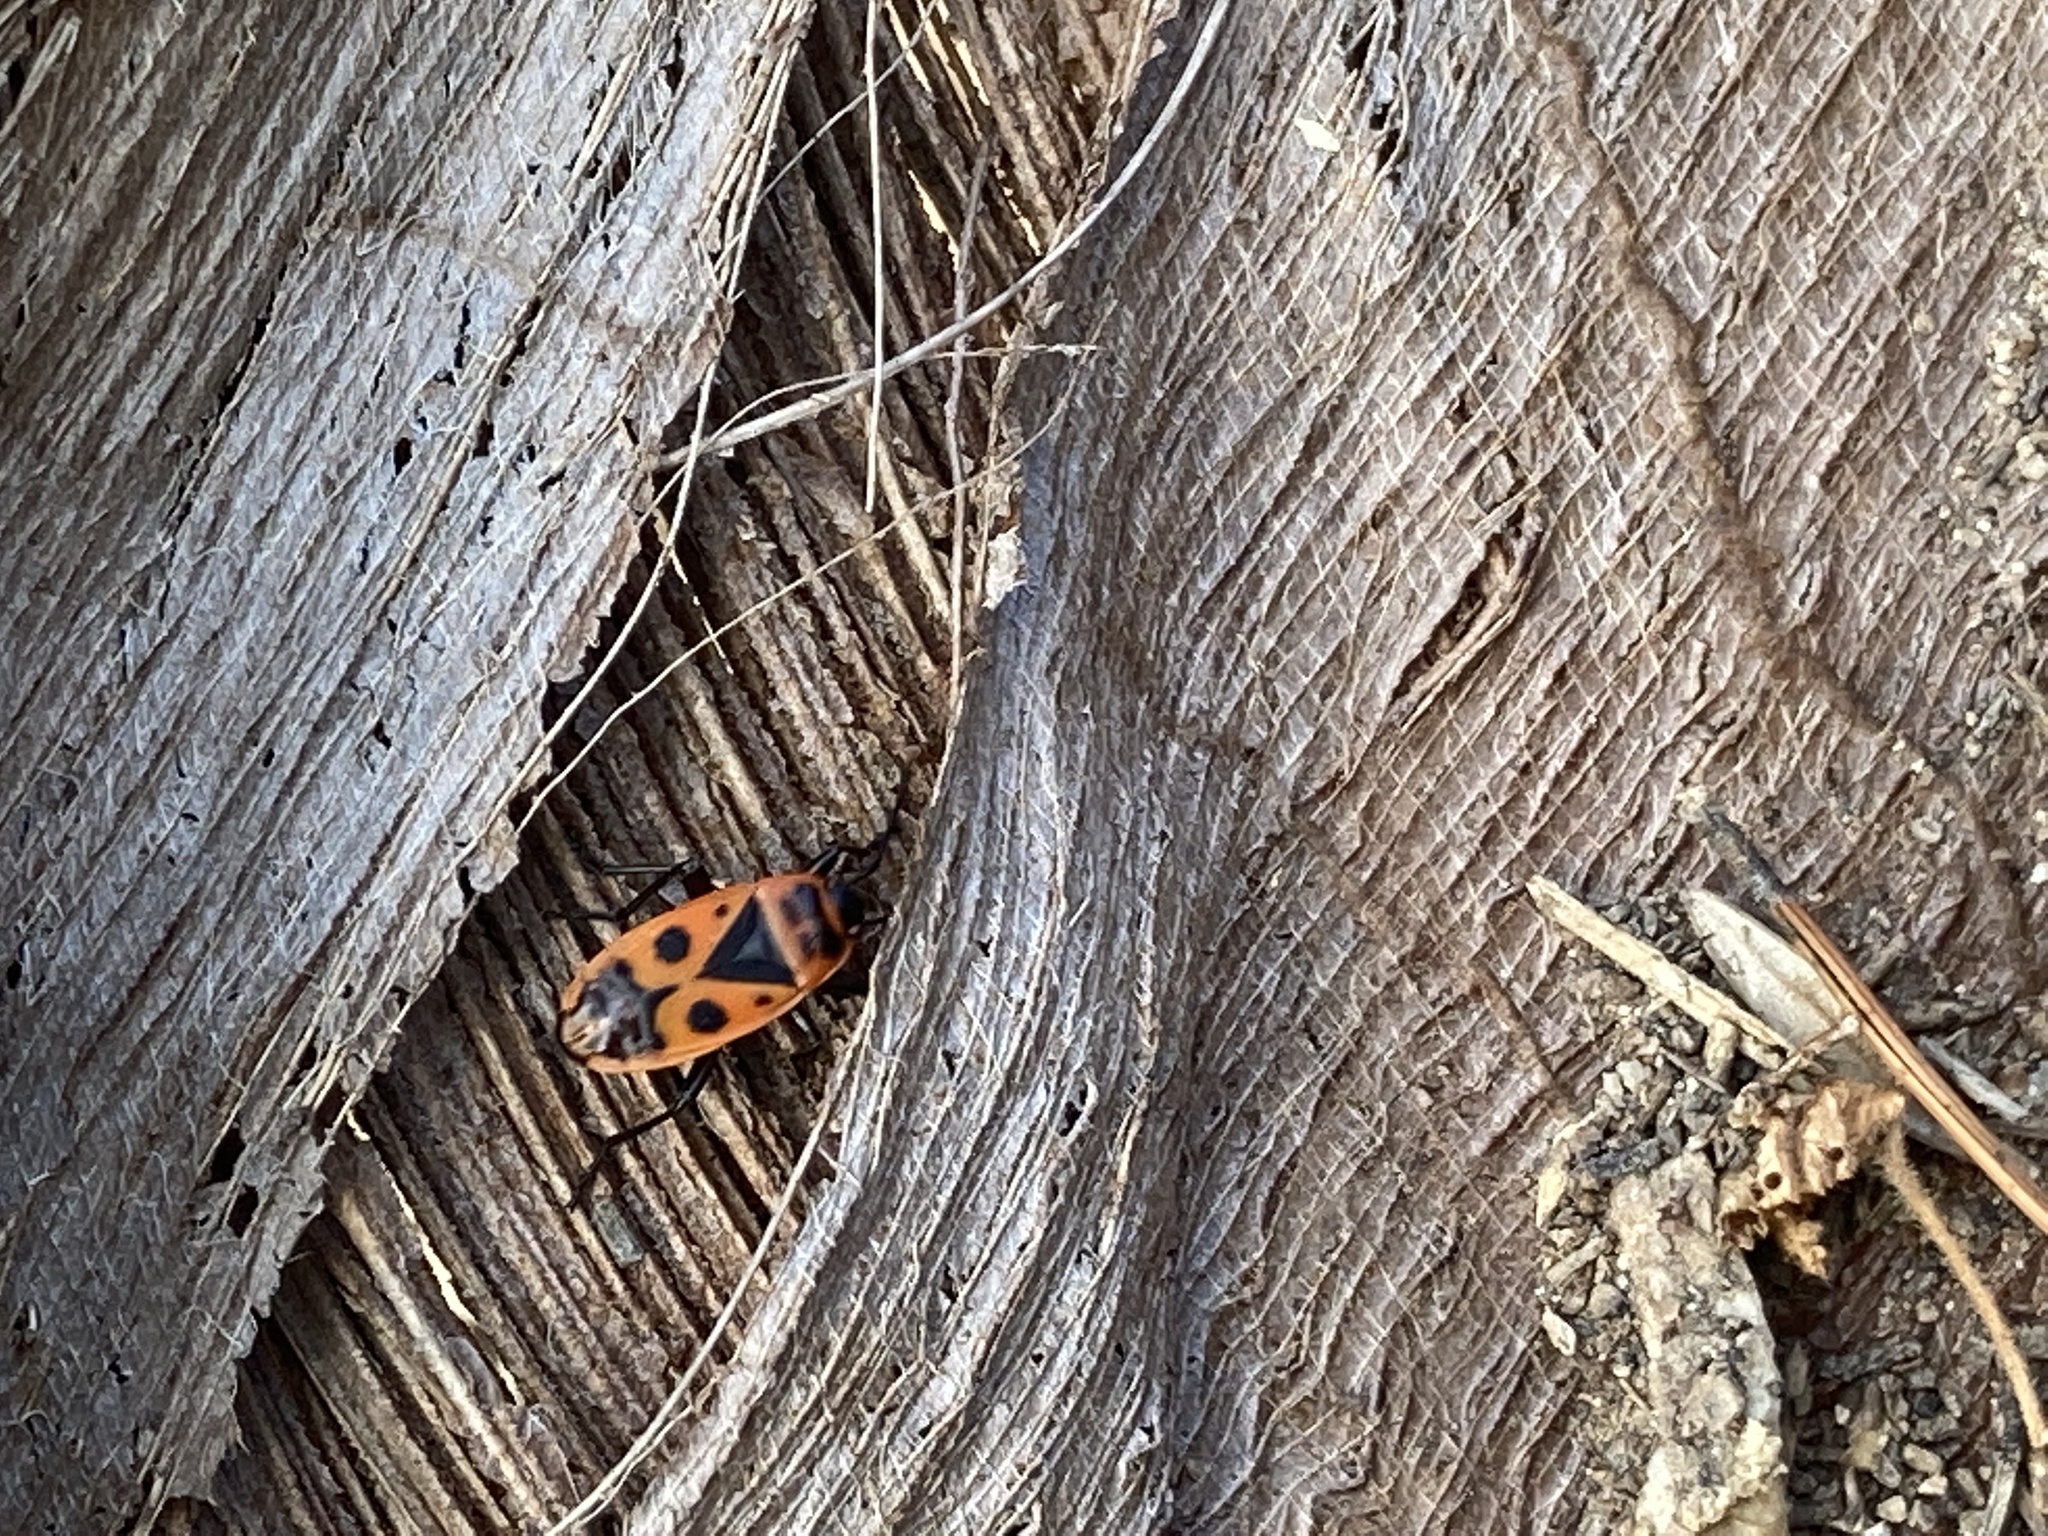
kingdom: Animalia
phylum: Arthropoda
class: Insecta
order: Hemiptera
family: Pyrrhocoridae
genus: Pyrrhocoris
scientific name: Pyrrhocoris apterus
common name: Firebug
